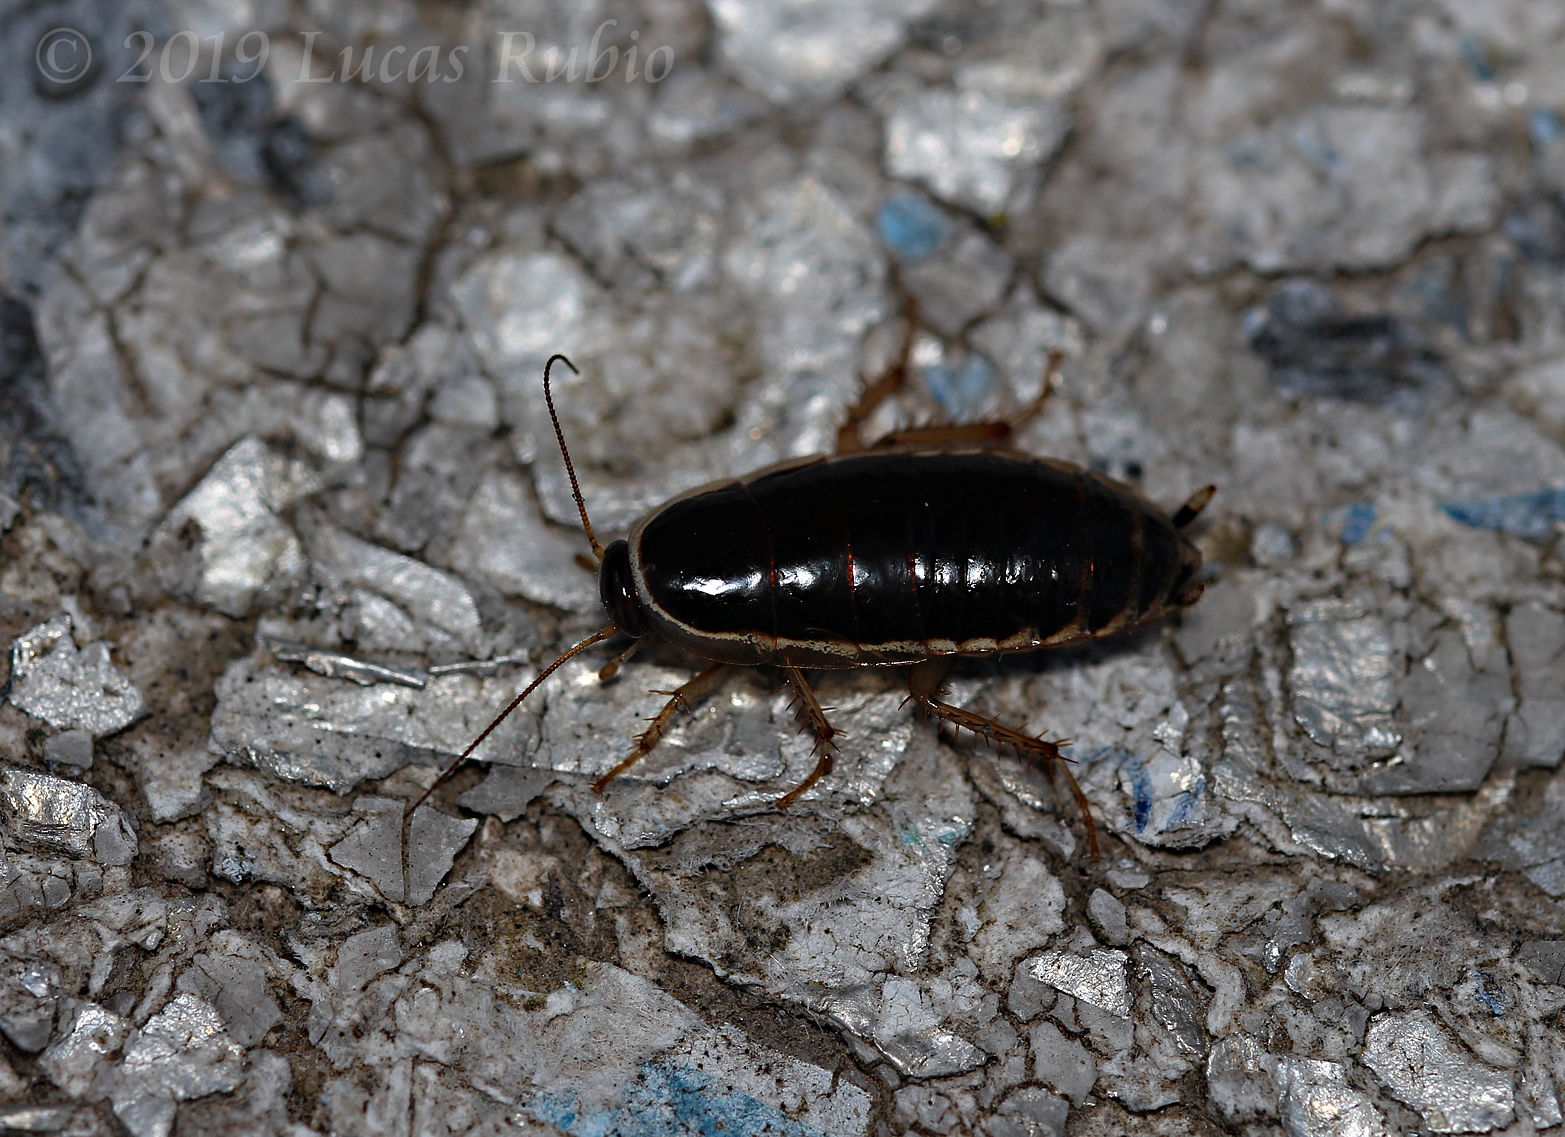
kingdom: Animalia
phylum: Arthropoda
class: Insecta
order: Blattodea
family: Ectobiidae
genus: Agmoblatta
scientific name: Agmoblatta thaxteri
